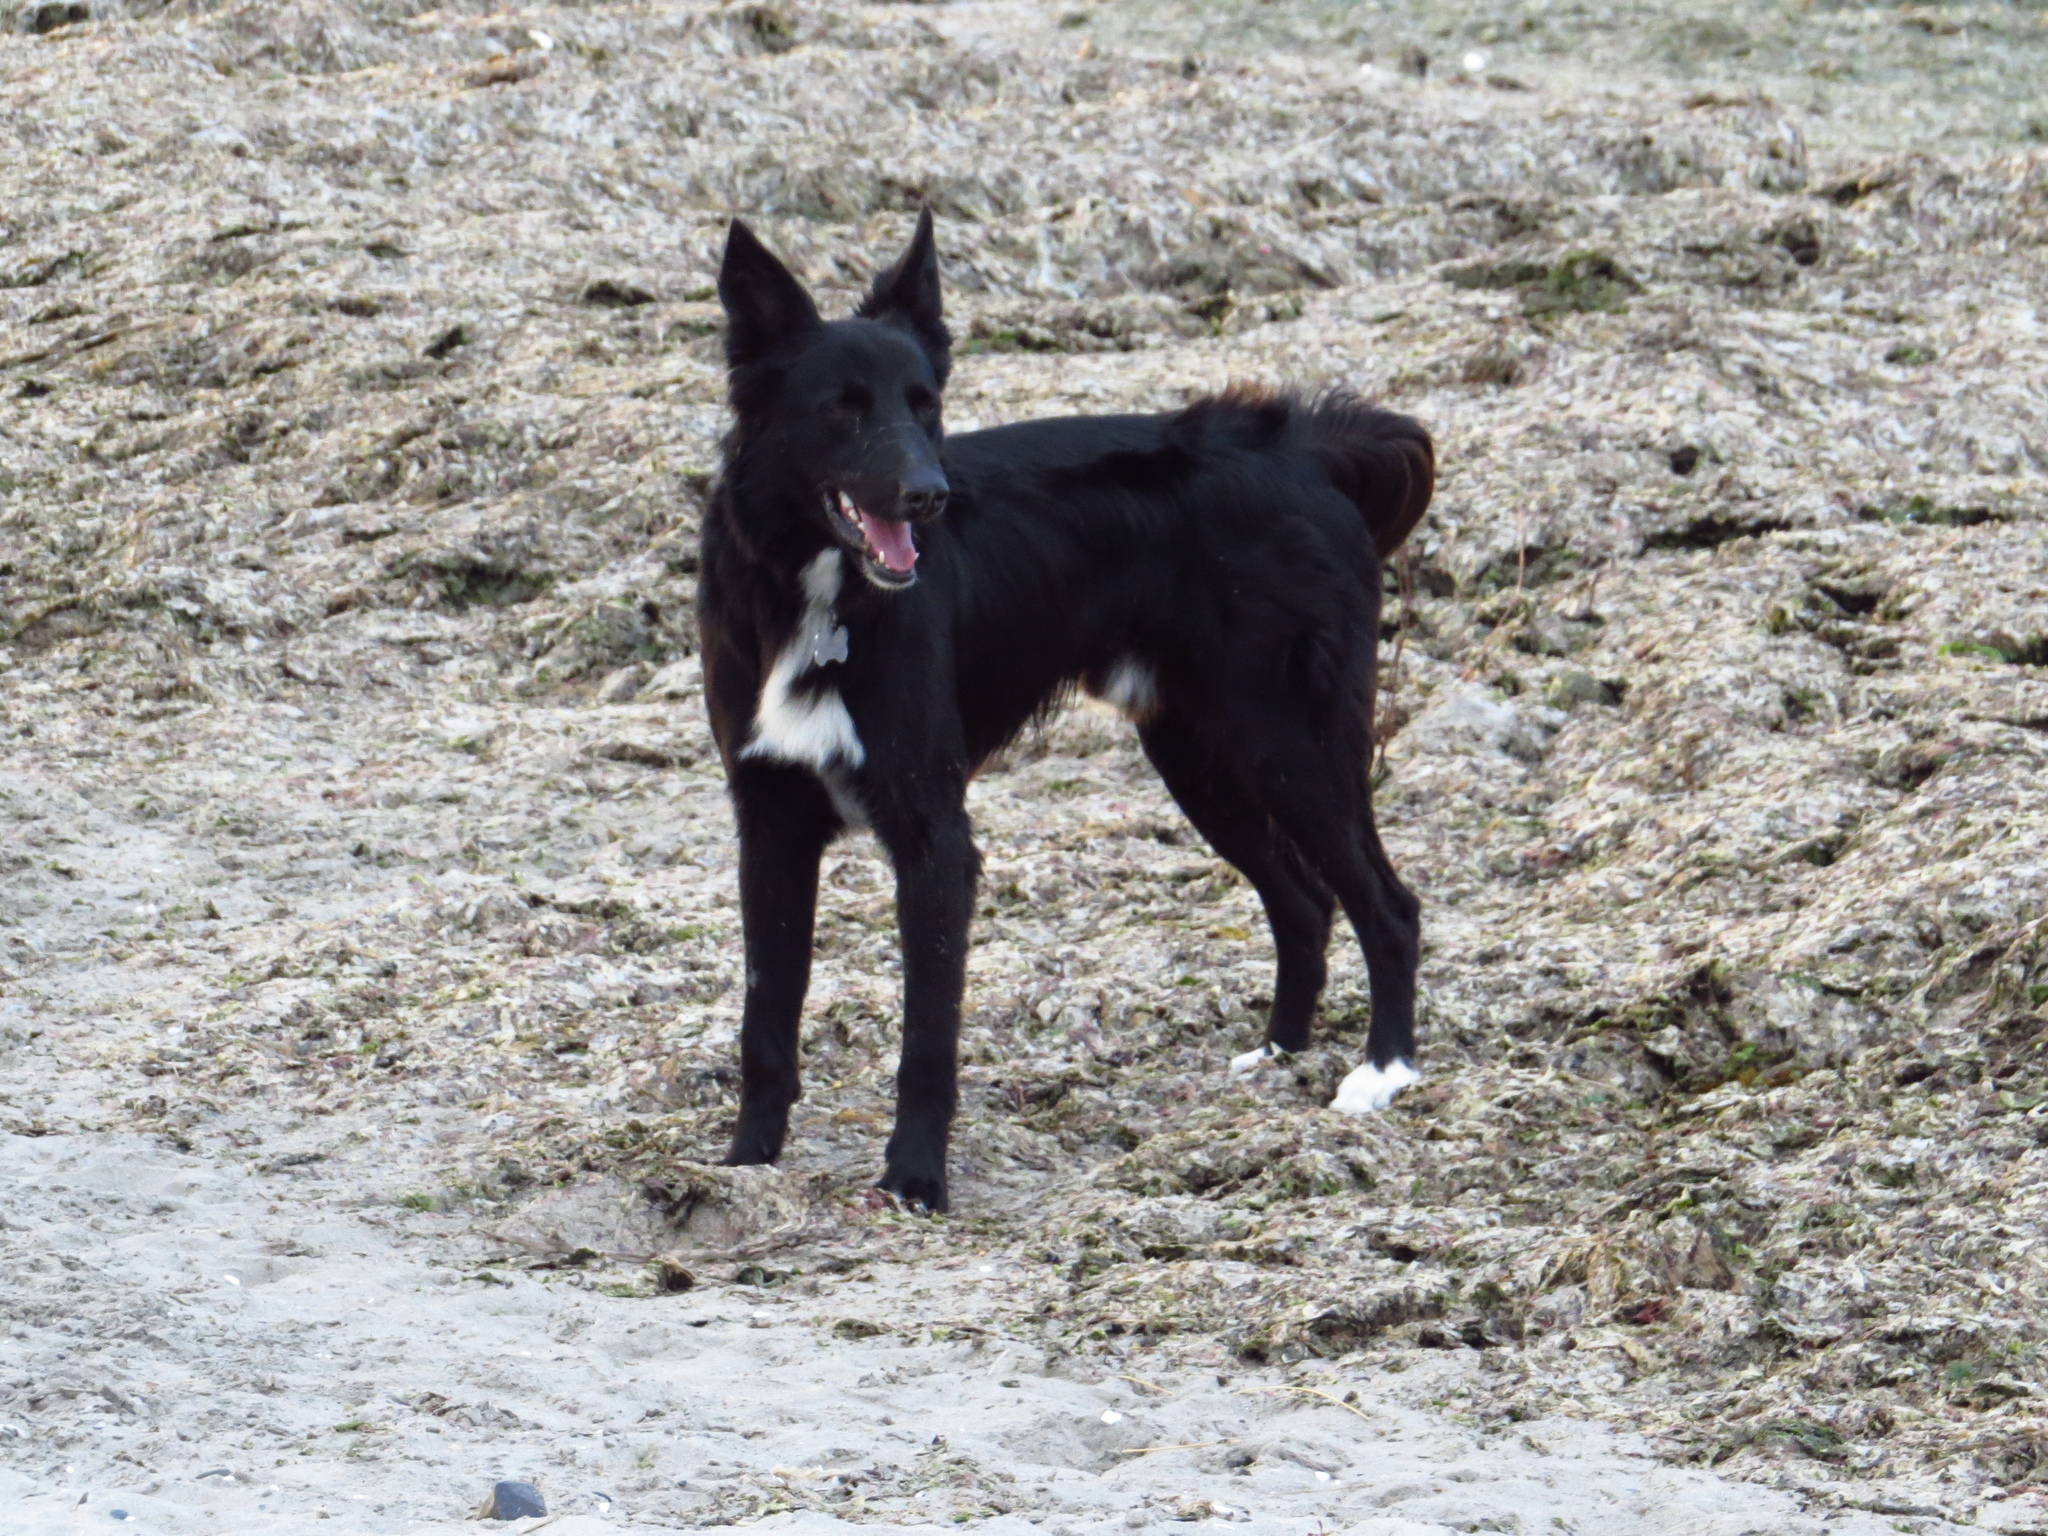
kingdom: Animalia
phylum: Chordata
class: Mammalia
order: Carnivora
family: Canidae
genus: Canis
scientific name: Canis lupus
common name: Gray wolf
